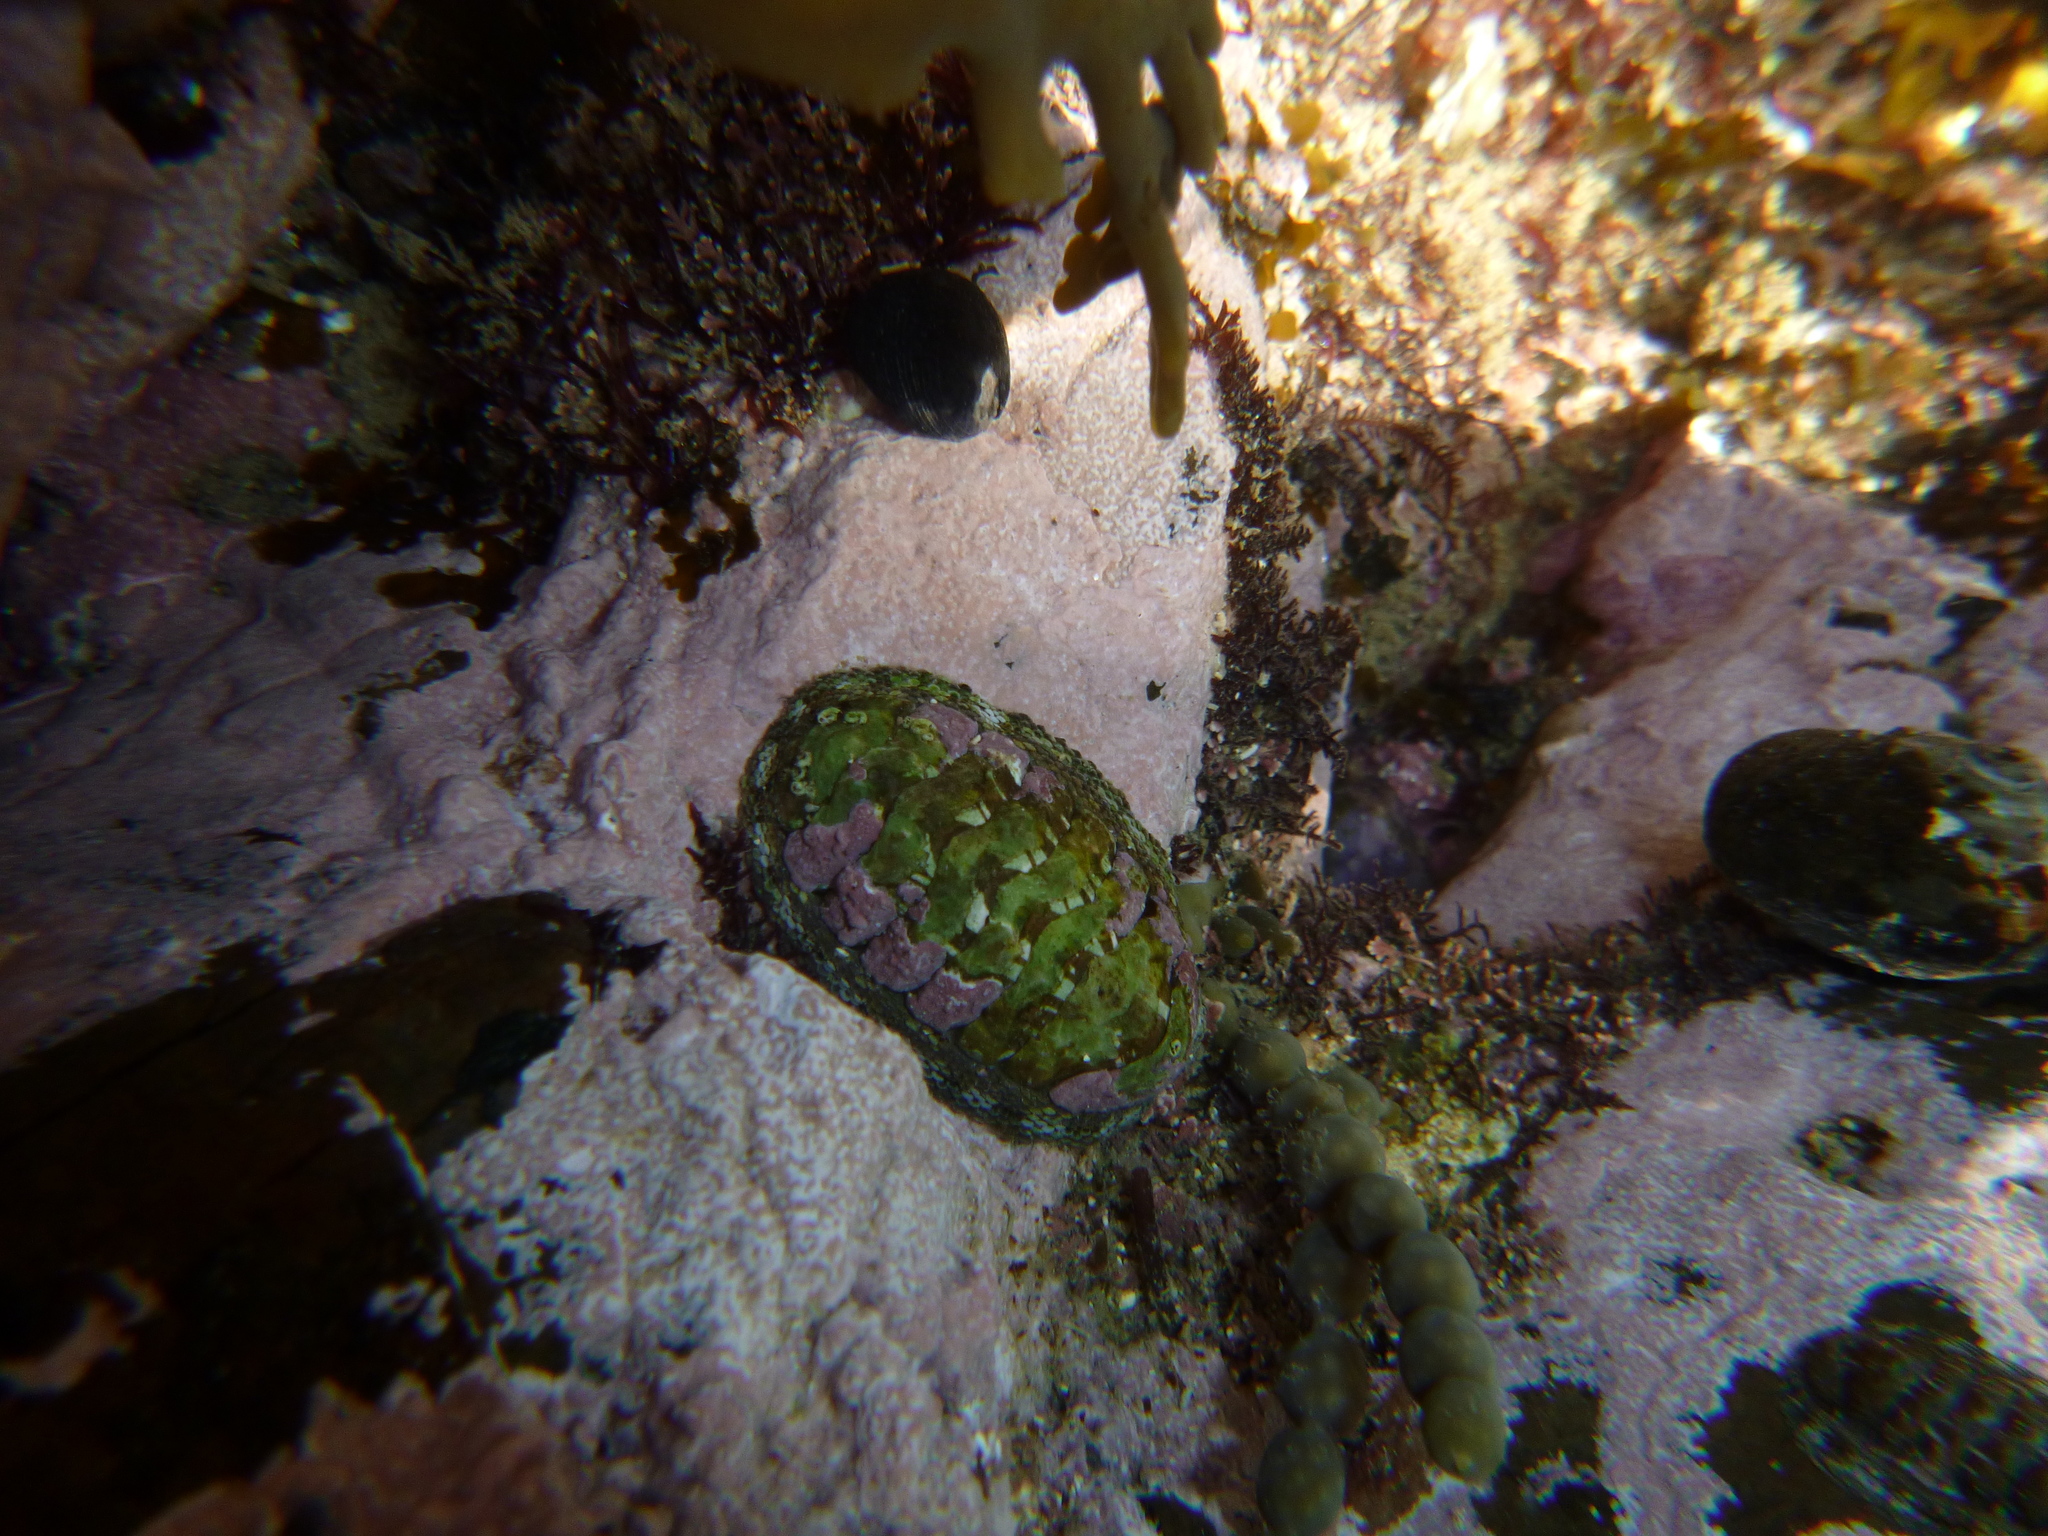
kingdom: Animalia
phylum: Mollusca
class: Polyplacophora
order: Chitonida
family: Chitonidae
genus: Sypharochiton
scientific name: Sypharochiton pelliserpentis
